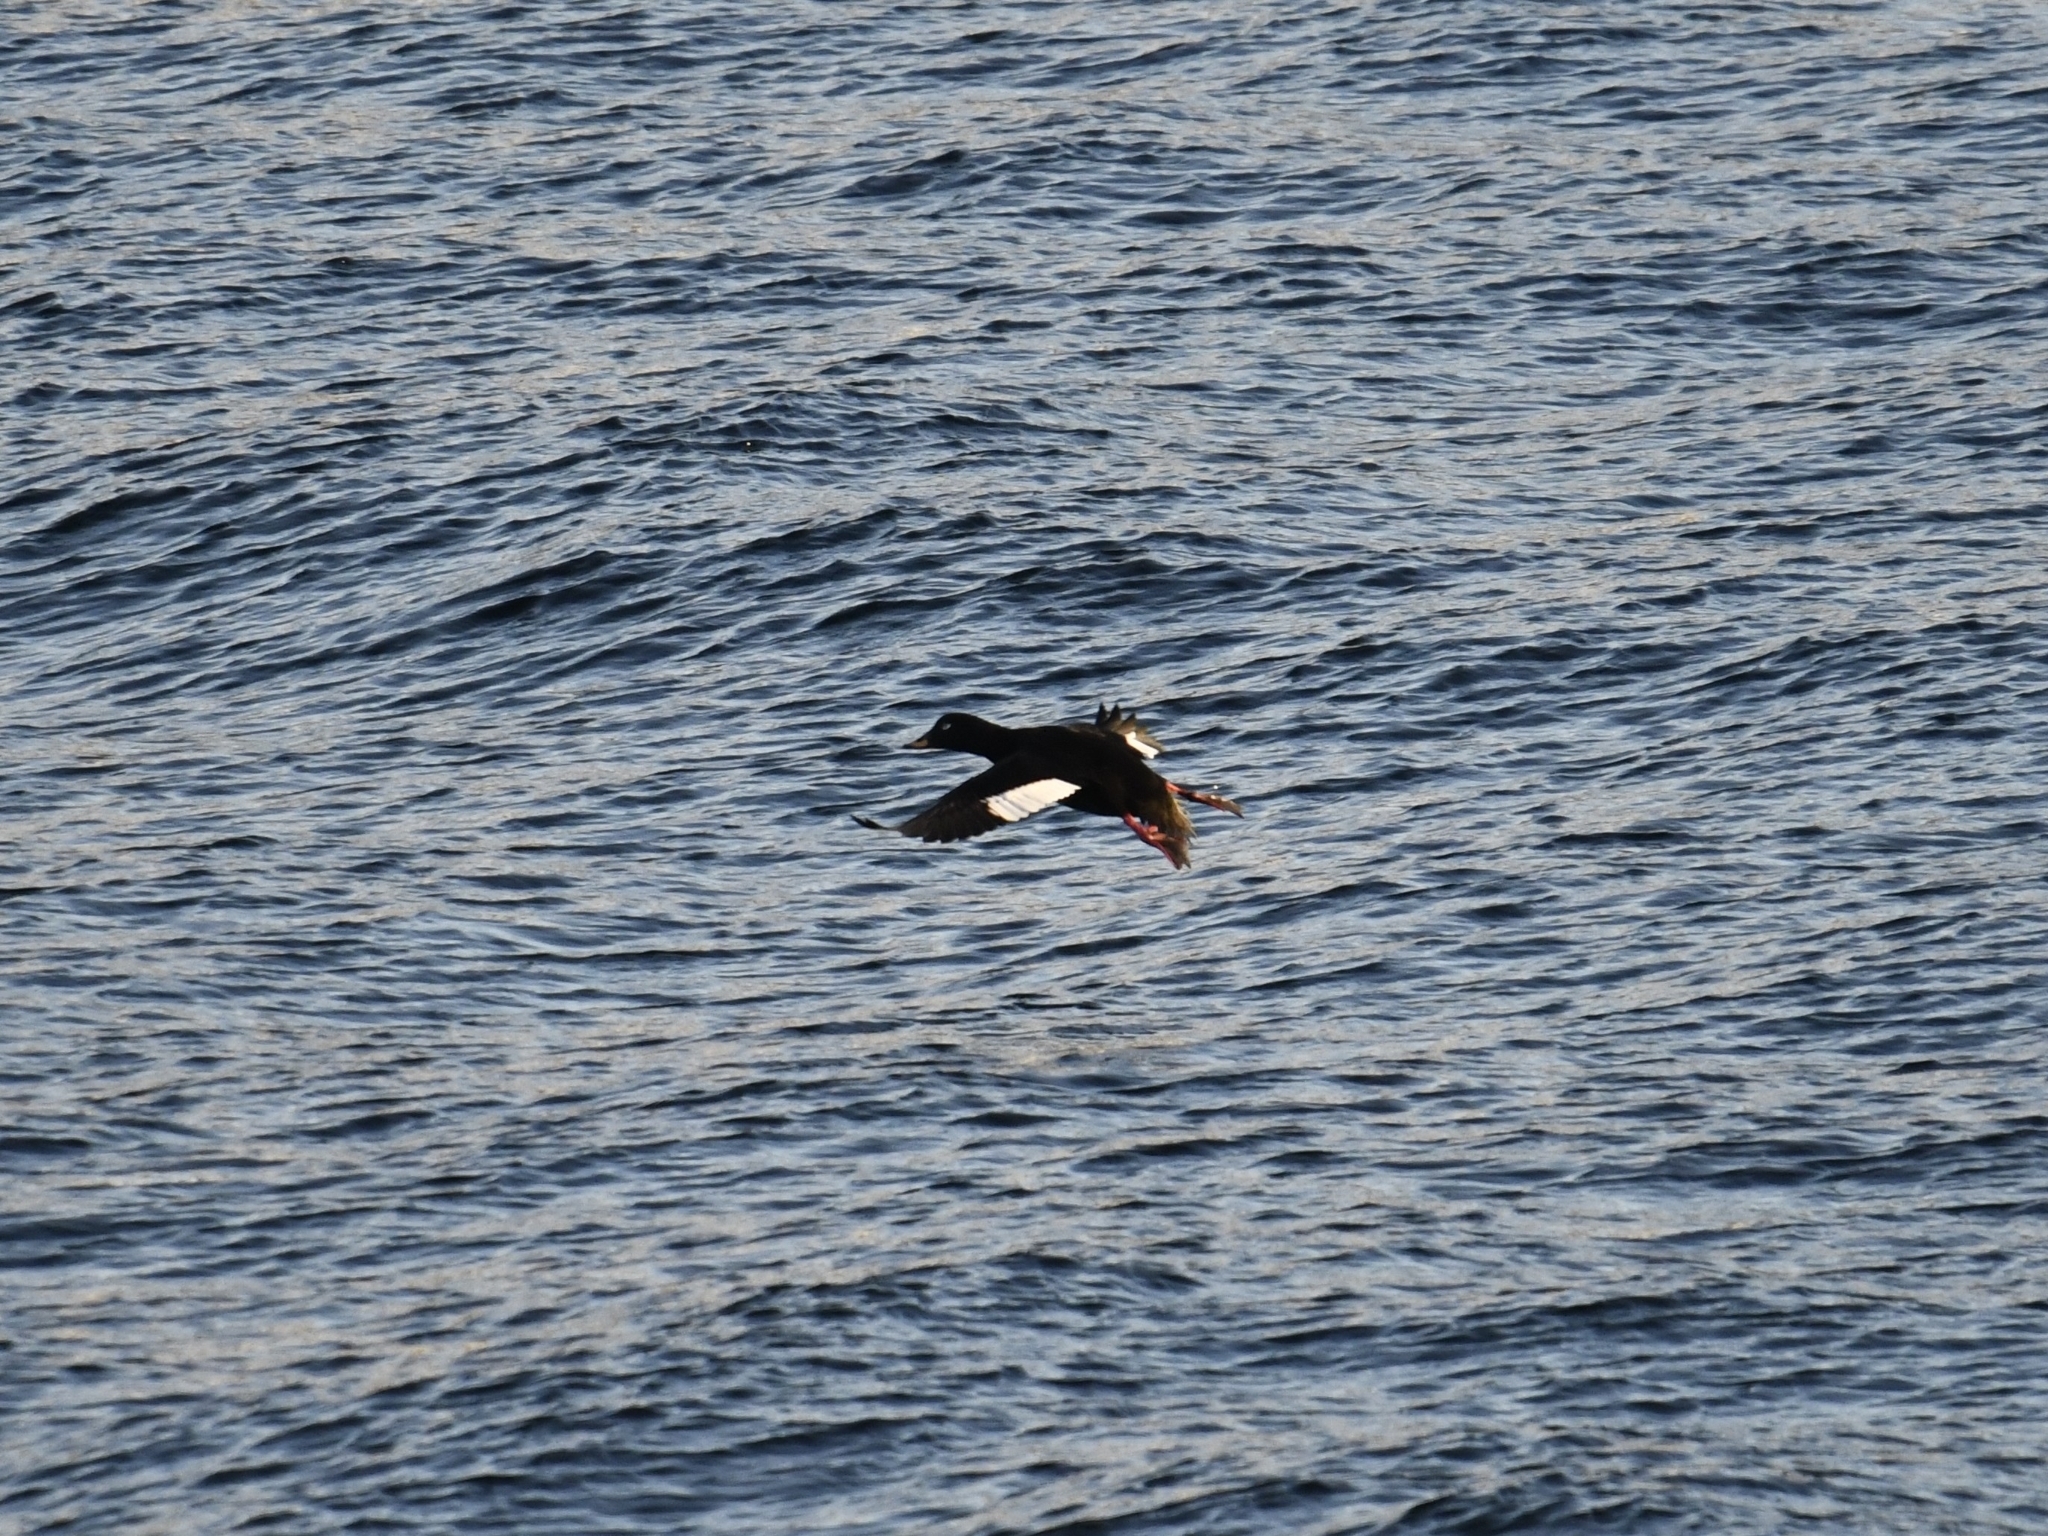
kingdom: Animalia
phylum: Chordata
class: Aves
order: Anseriformes
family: Anatidae
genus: Melanitta
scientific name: Melanitta fusca
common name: Velvet scoter
